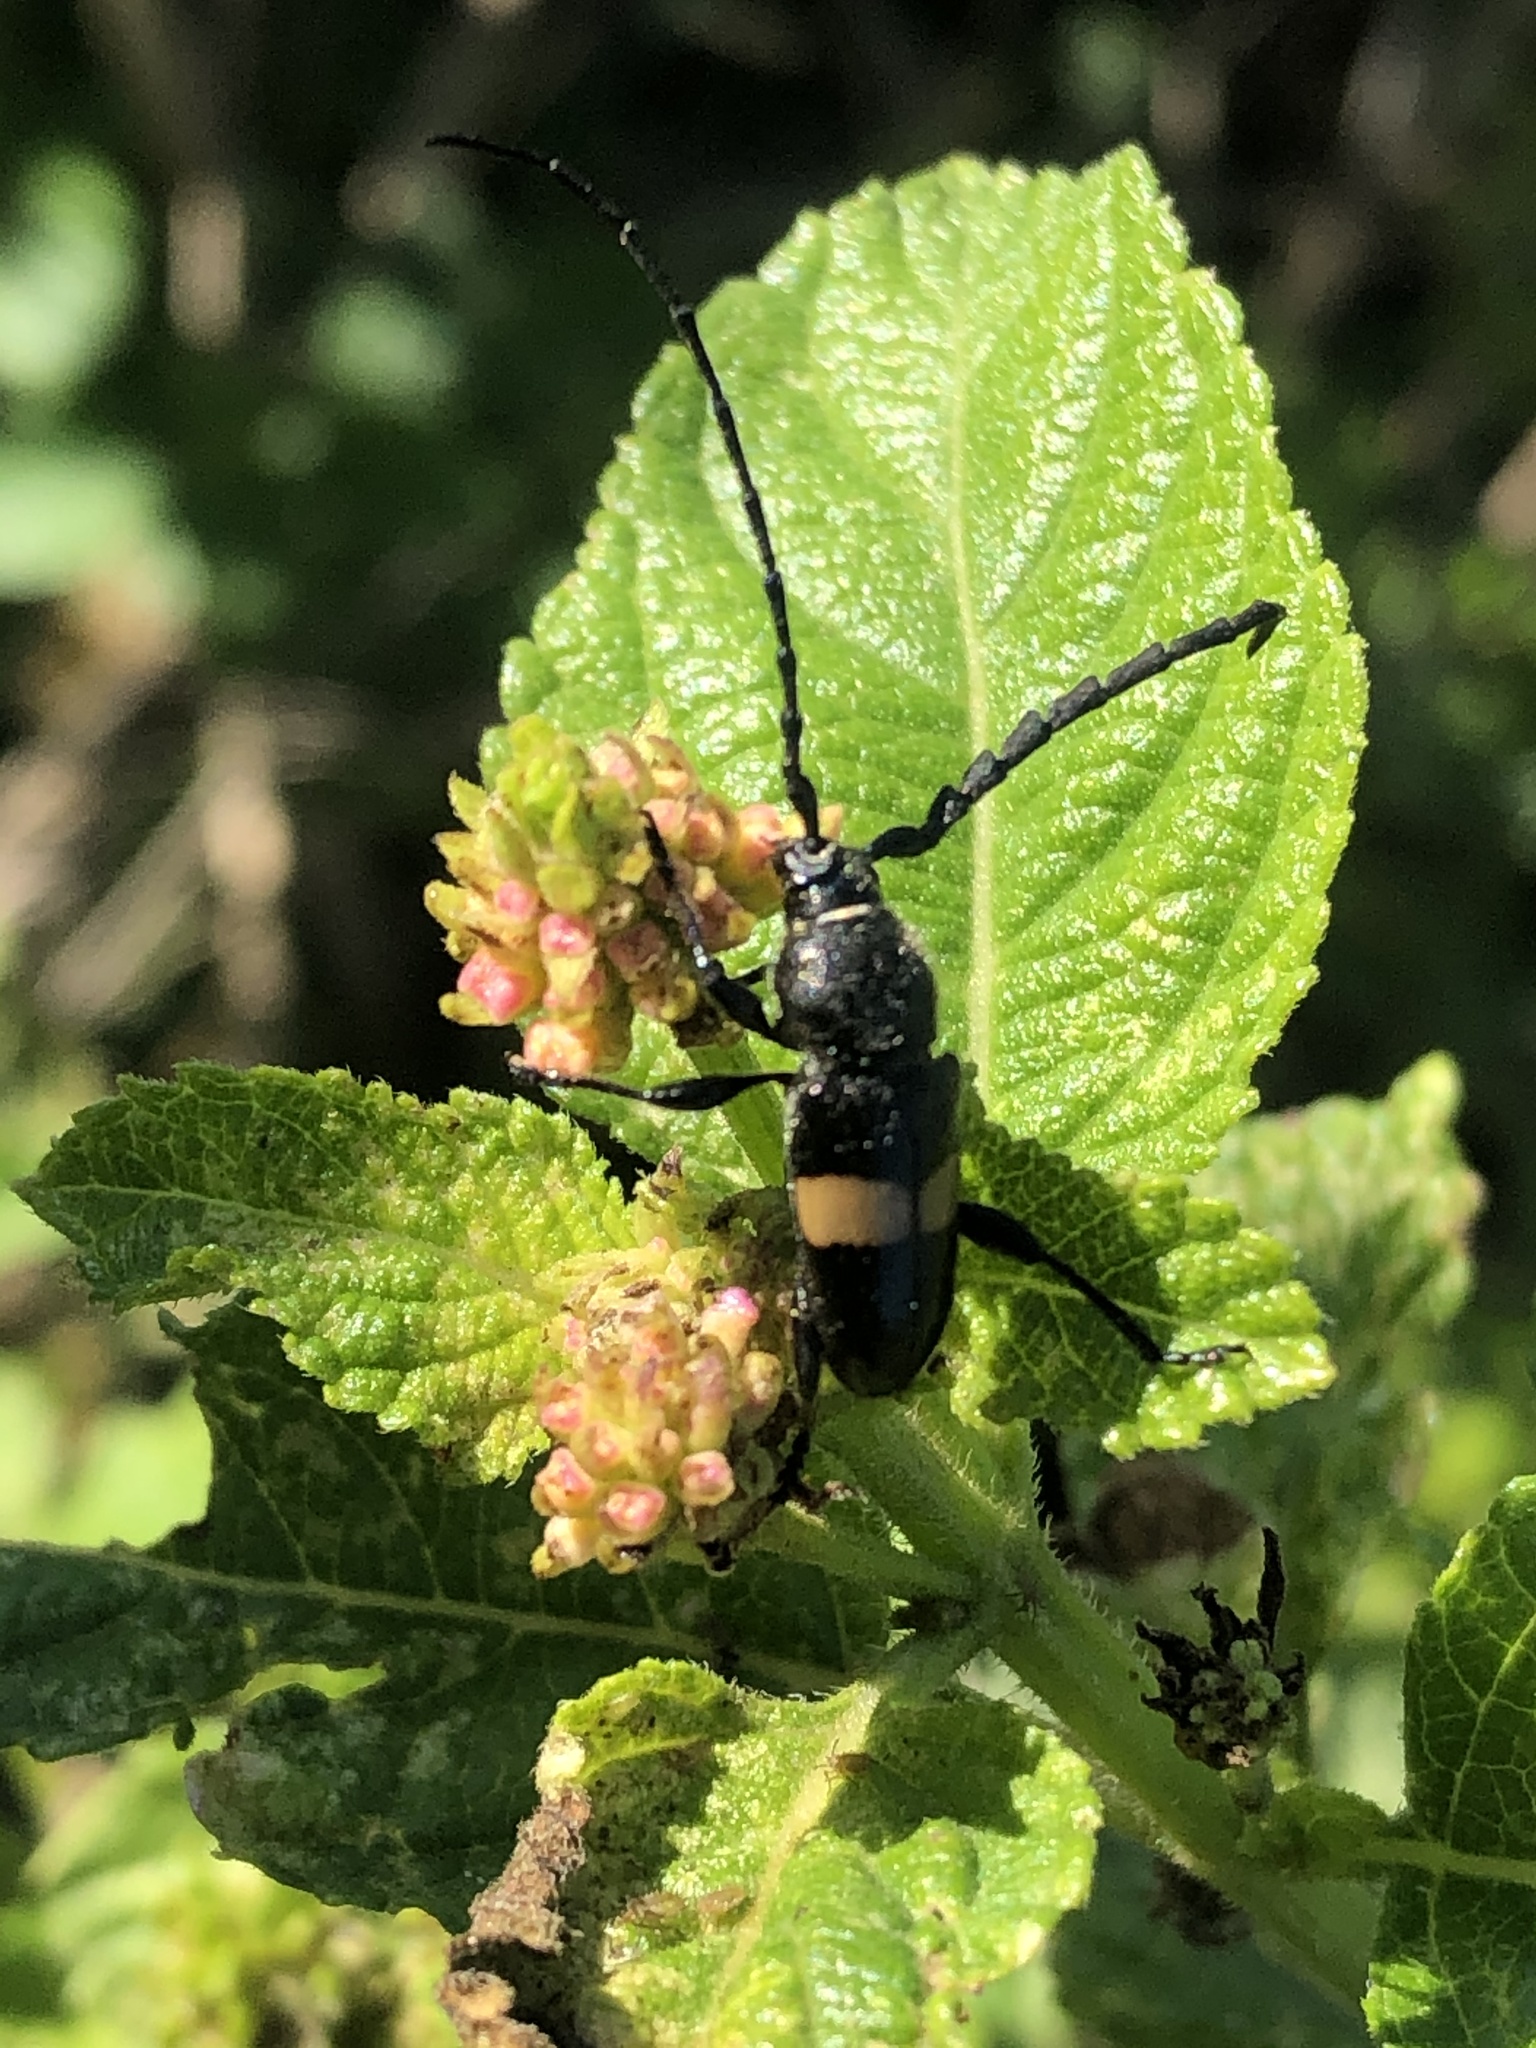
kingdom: Animalia
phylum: Arthropoda
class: Insecta
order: Coleoptera
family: Cerambycidae
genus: Lissonotus
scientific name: Lissonotus flavocinctus
